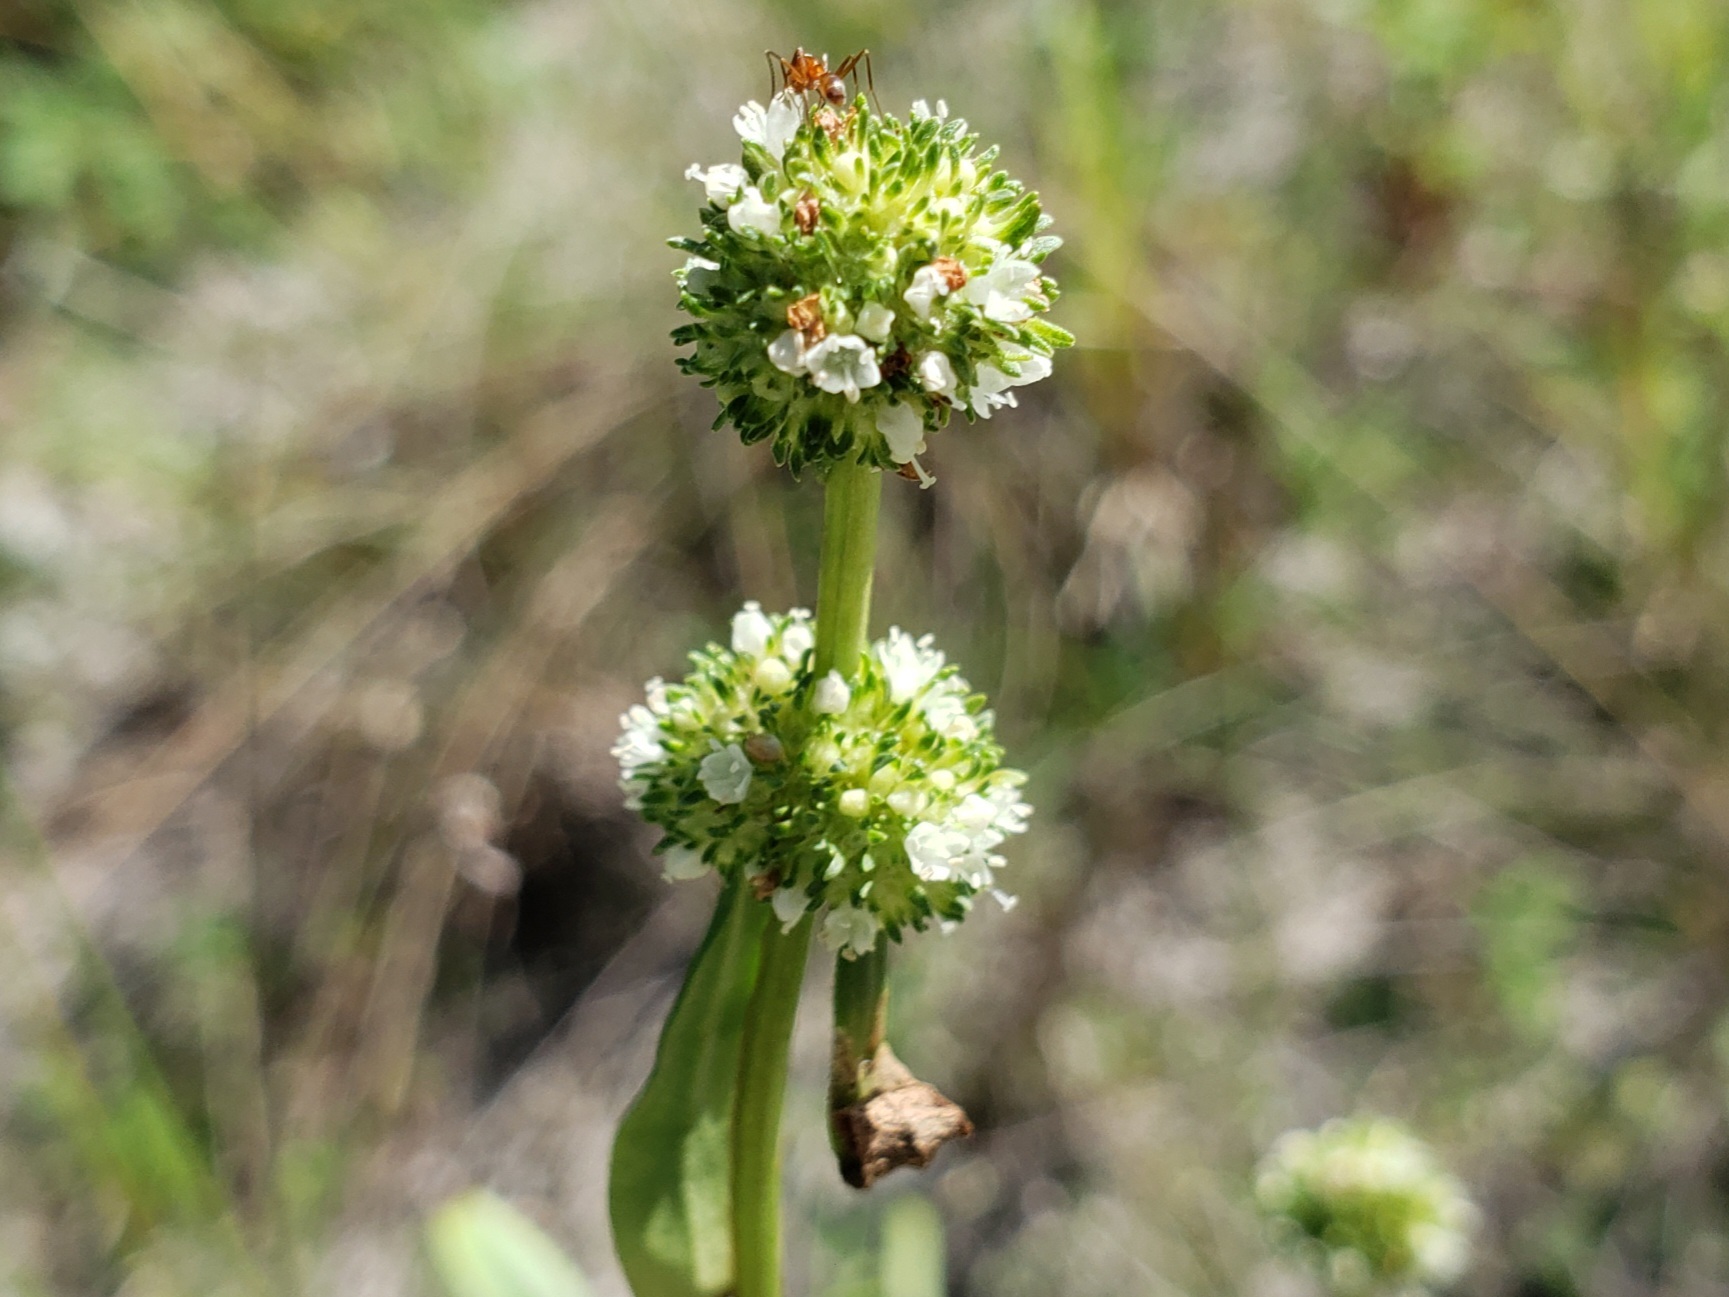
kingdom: Plantae
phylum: Tracheophyta
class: Magnoliopsida
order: Gentianales
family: Rubiaceae
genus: Spermacoce
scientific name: Spermacoce verticillata
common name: Shrubby false buttonweed
